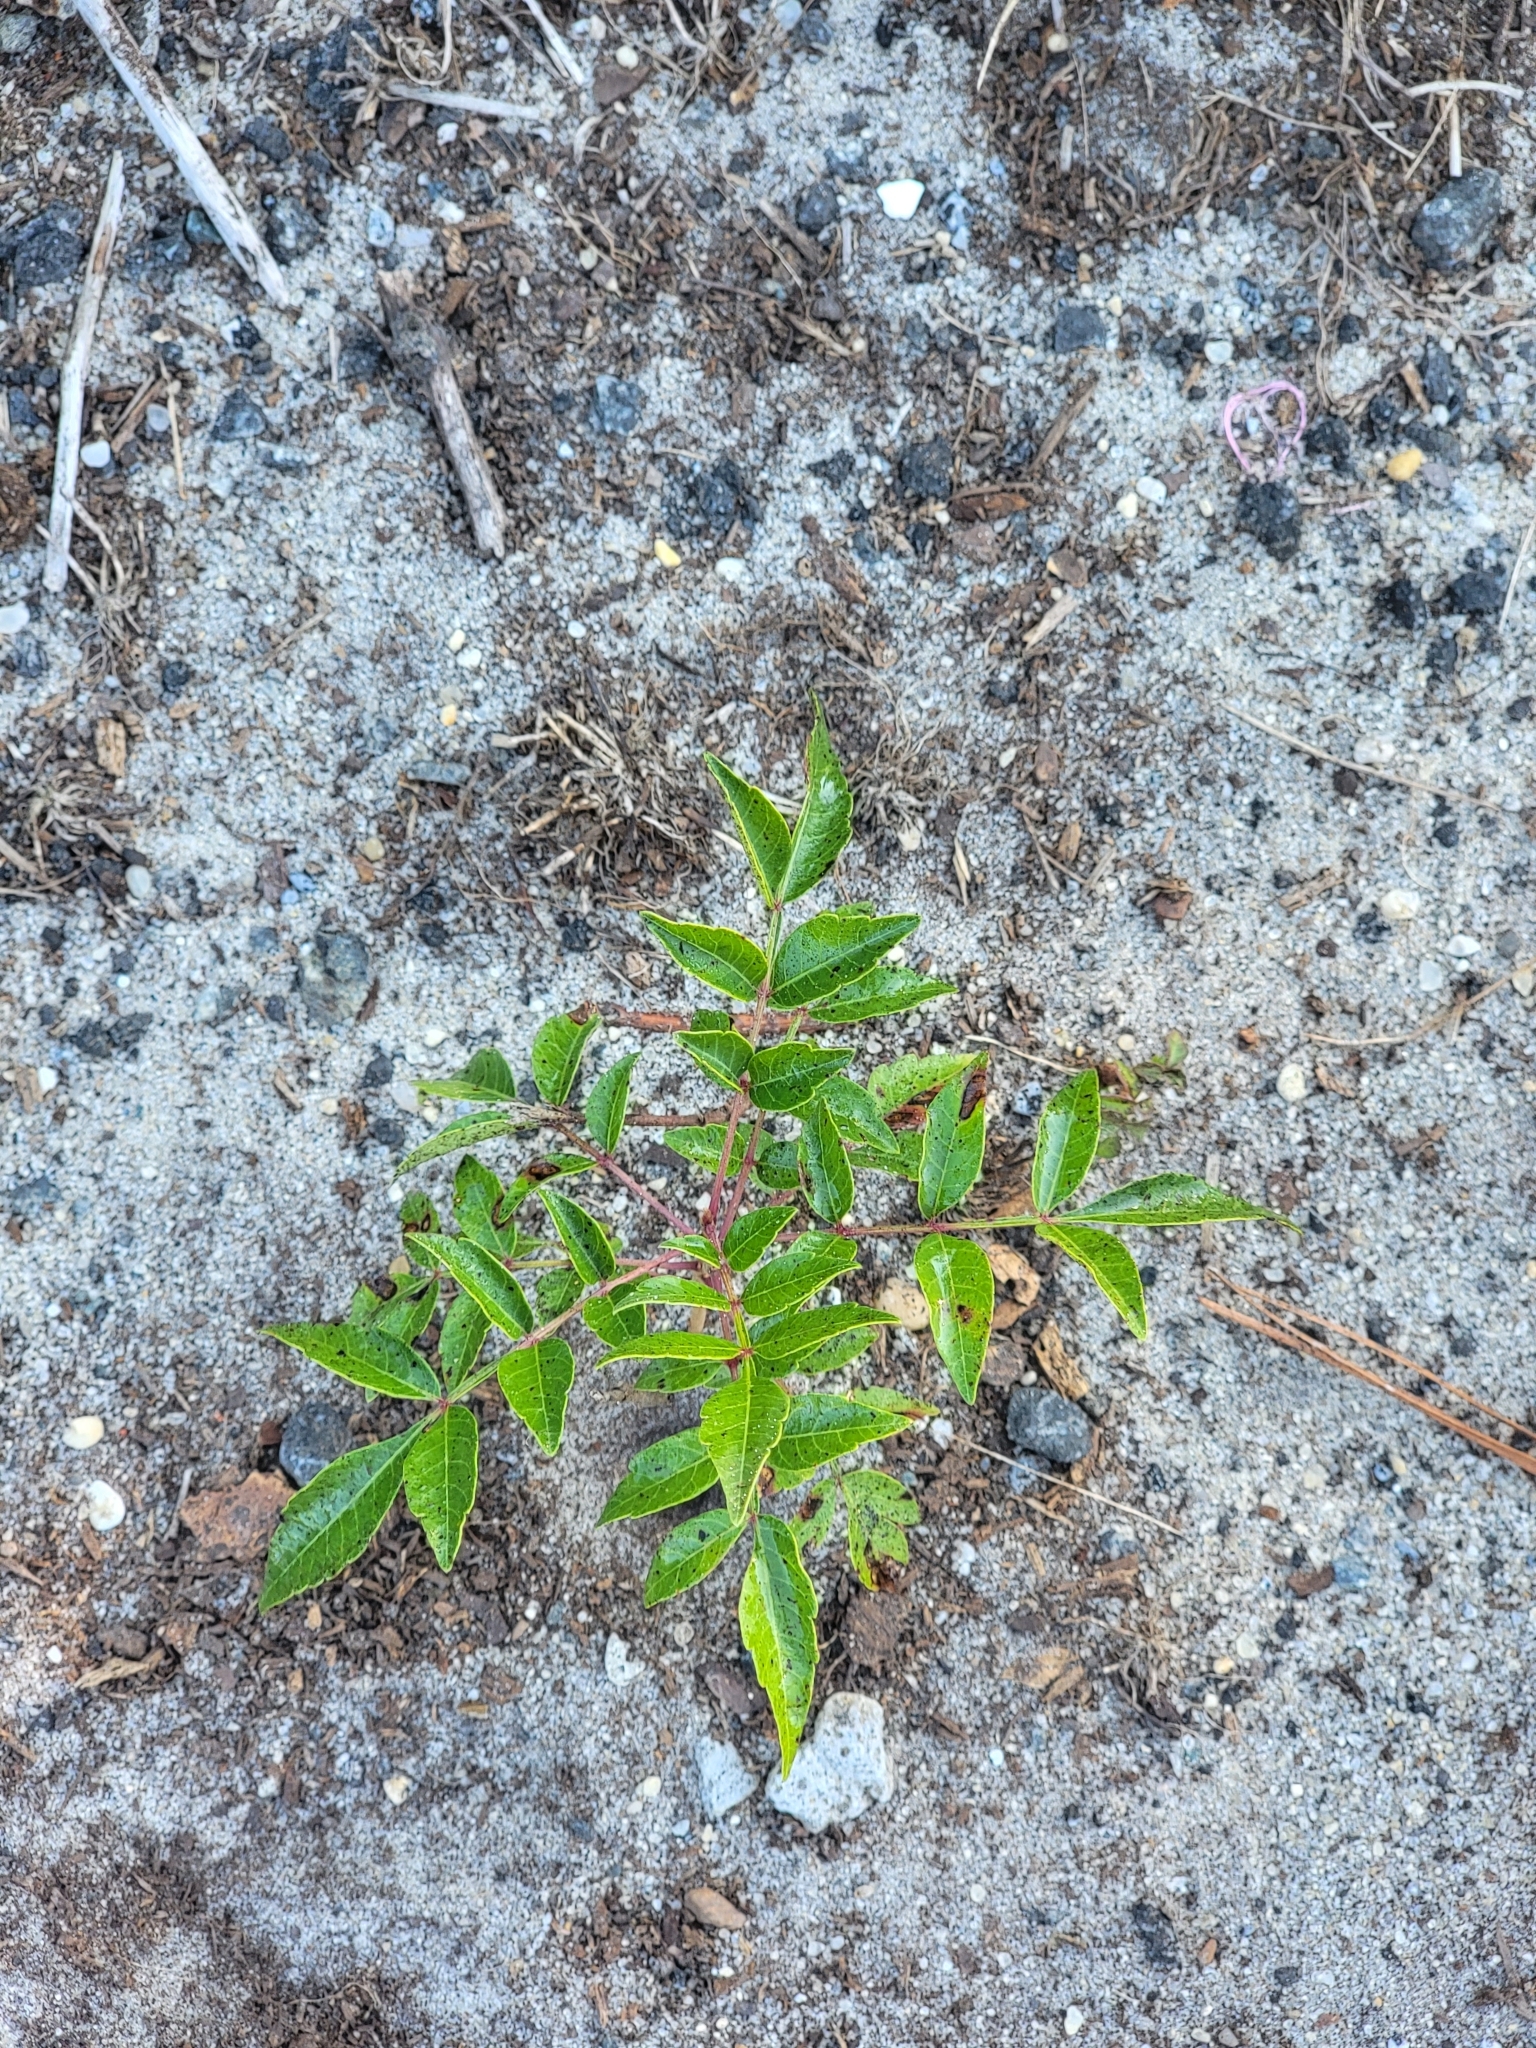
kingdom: Plantae
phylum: Tracheophyta
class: Magnoliopsida
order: Sapindales
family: Anacardiaceae
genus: Rhus
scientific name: Rhus copallina
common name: Shining sumac
